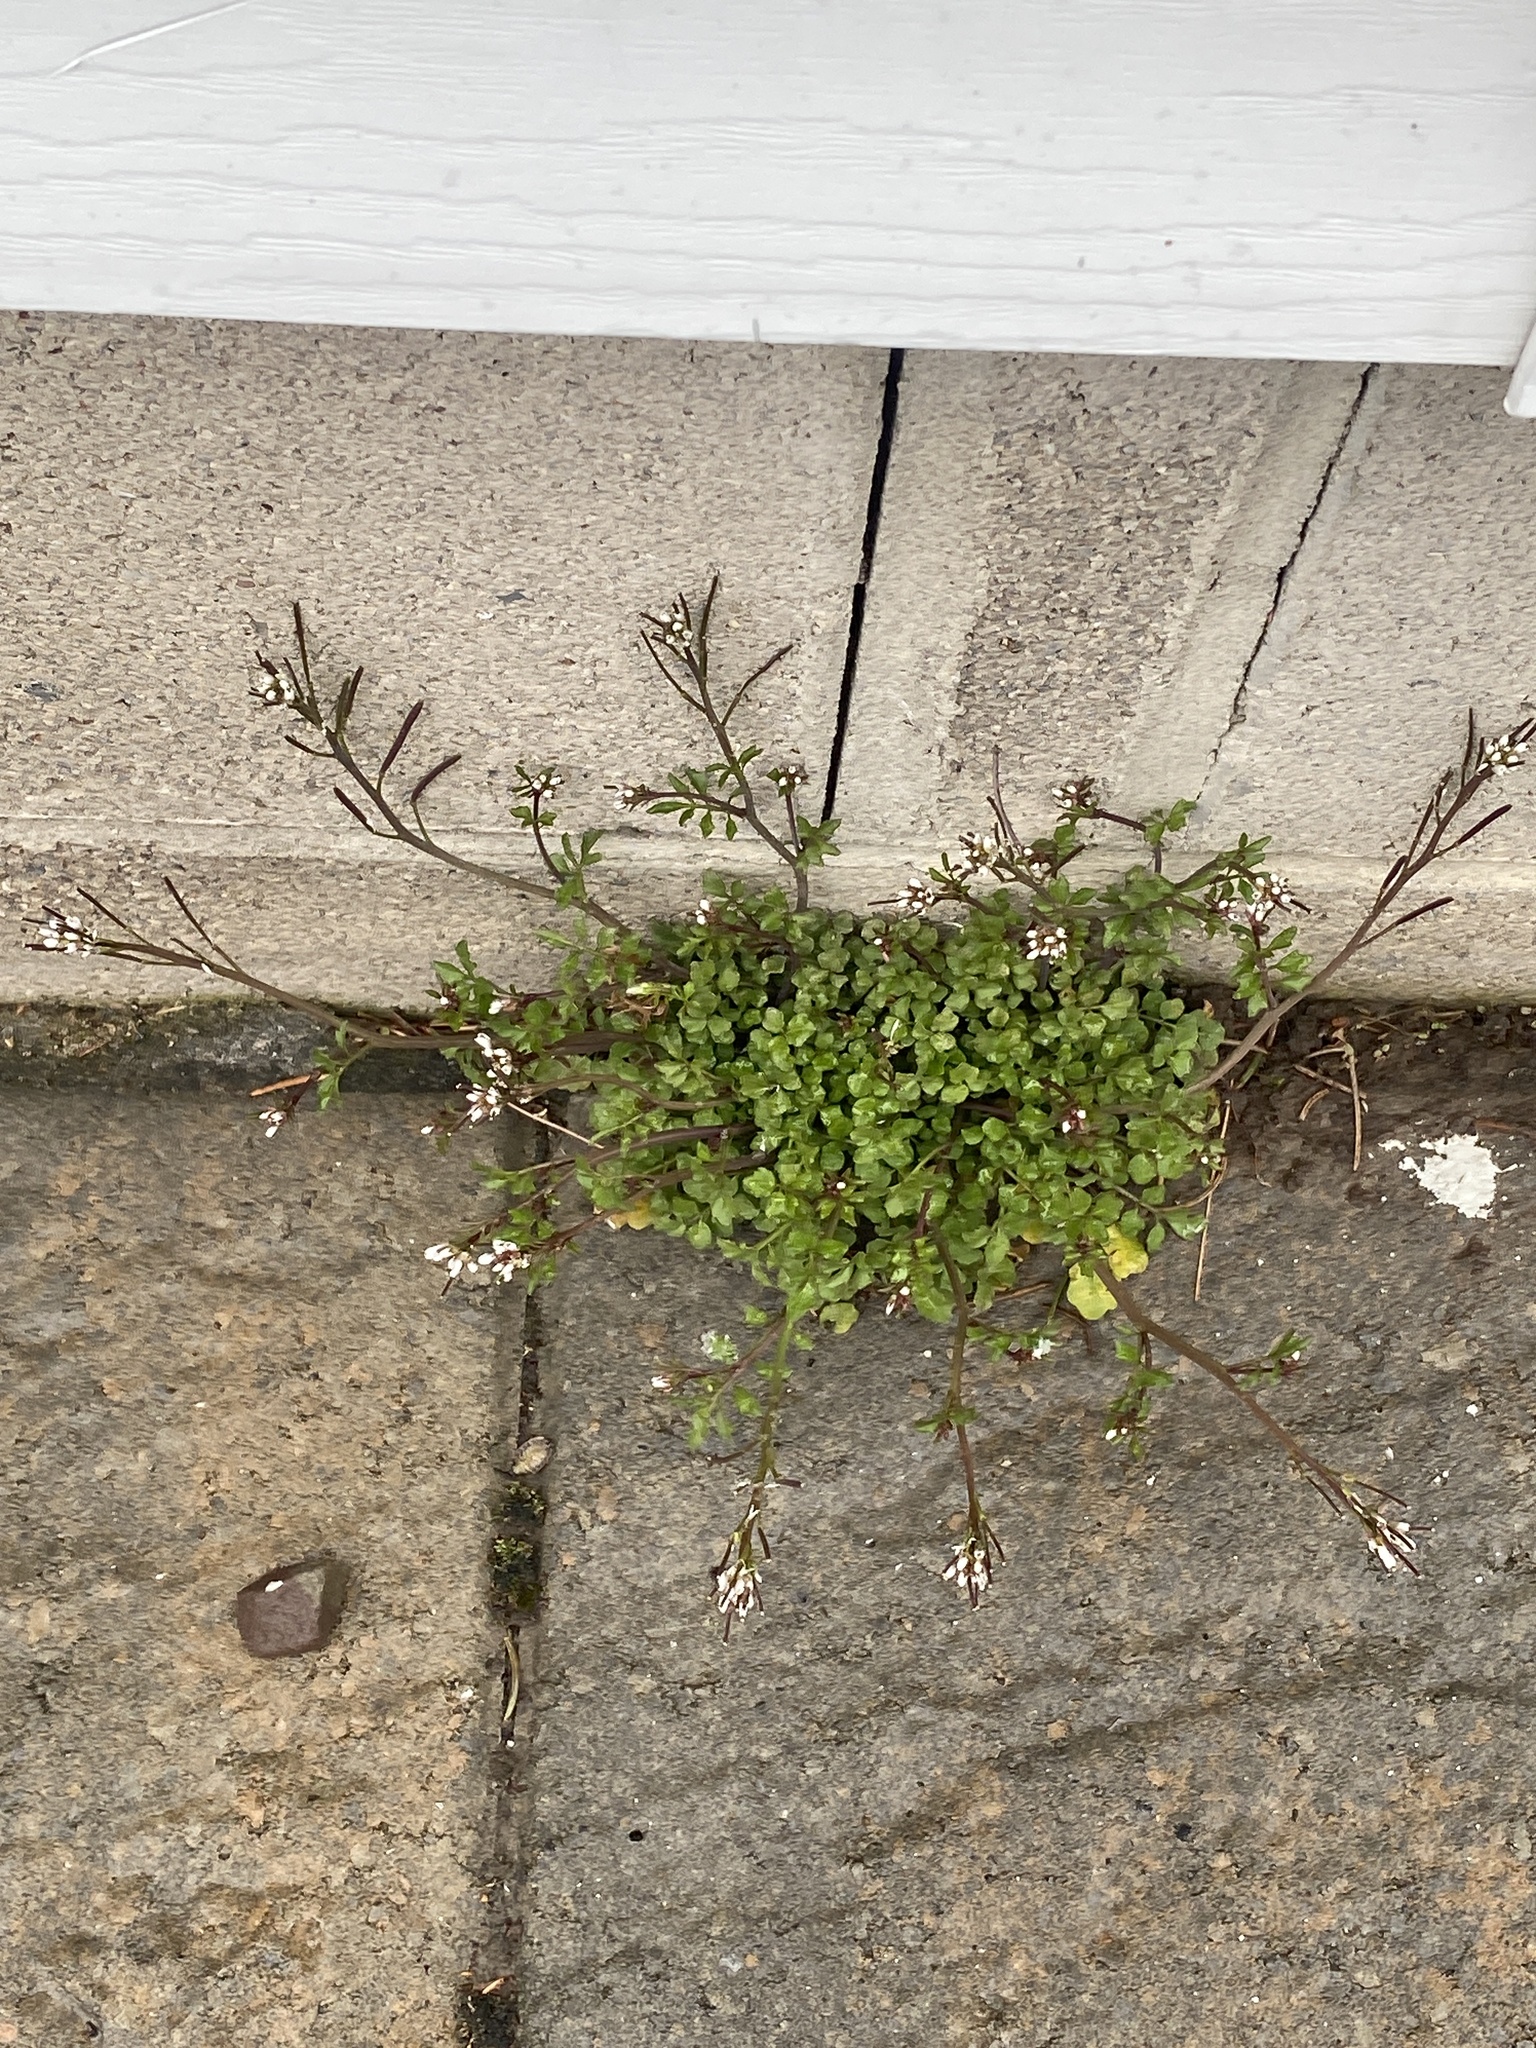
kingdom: Plantae
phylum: Tracheophyta
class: Magnoliopsida
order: Brassicales
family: Brassicaceae
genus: Cardamine
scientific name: Cardamine hirsuta
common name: Hairy bittercress
